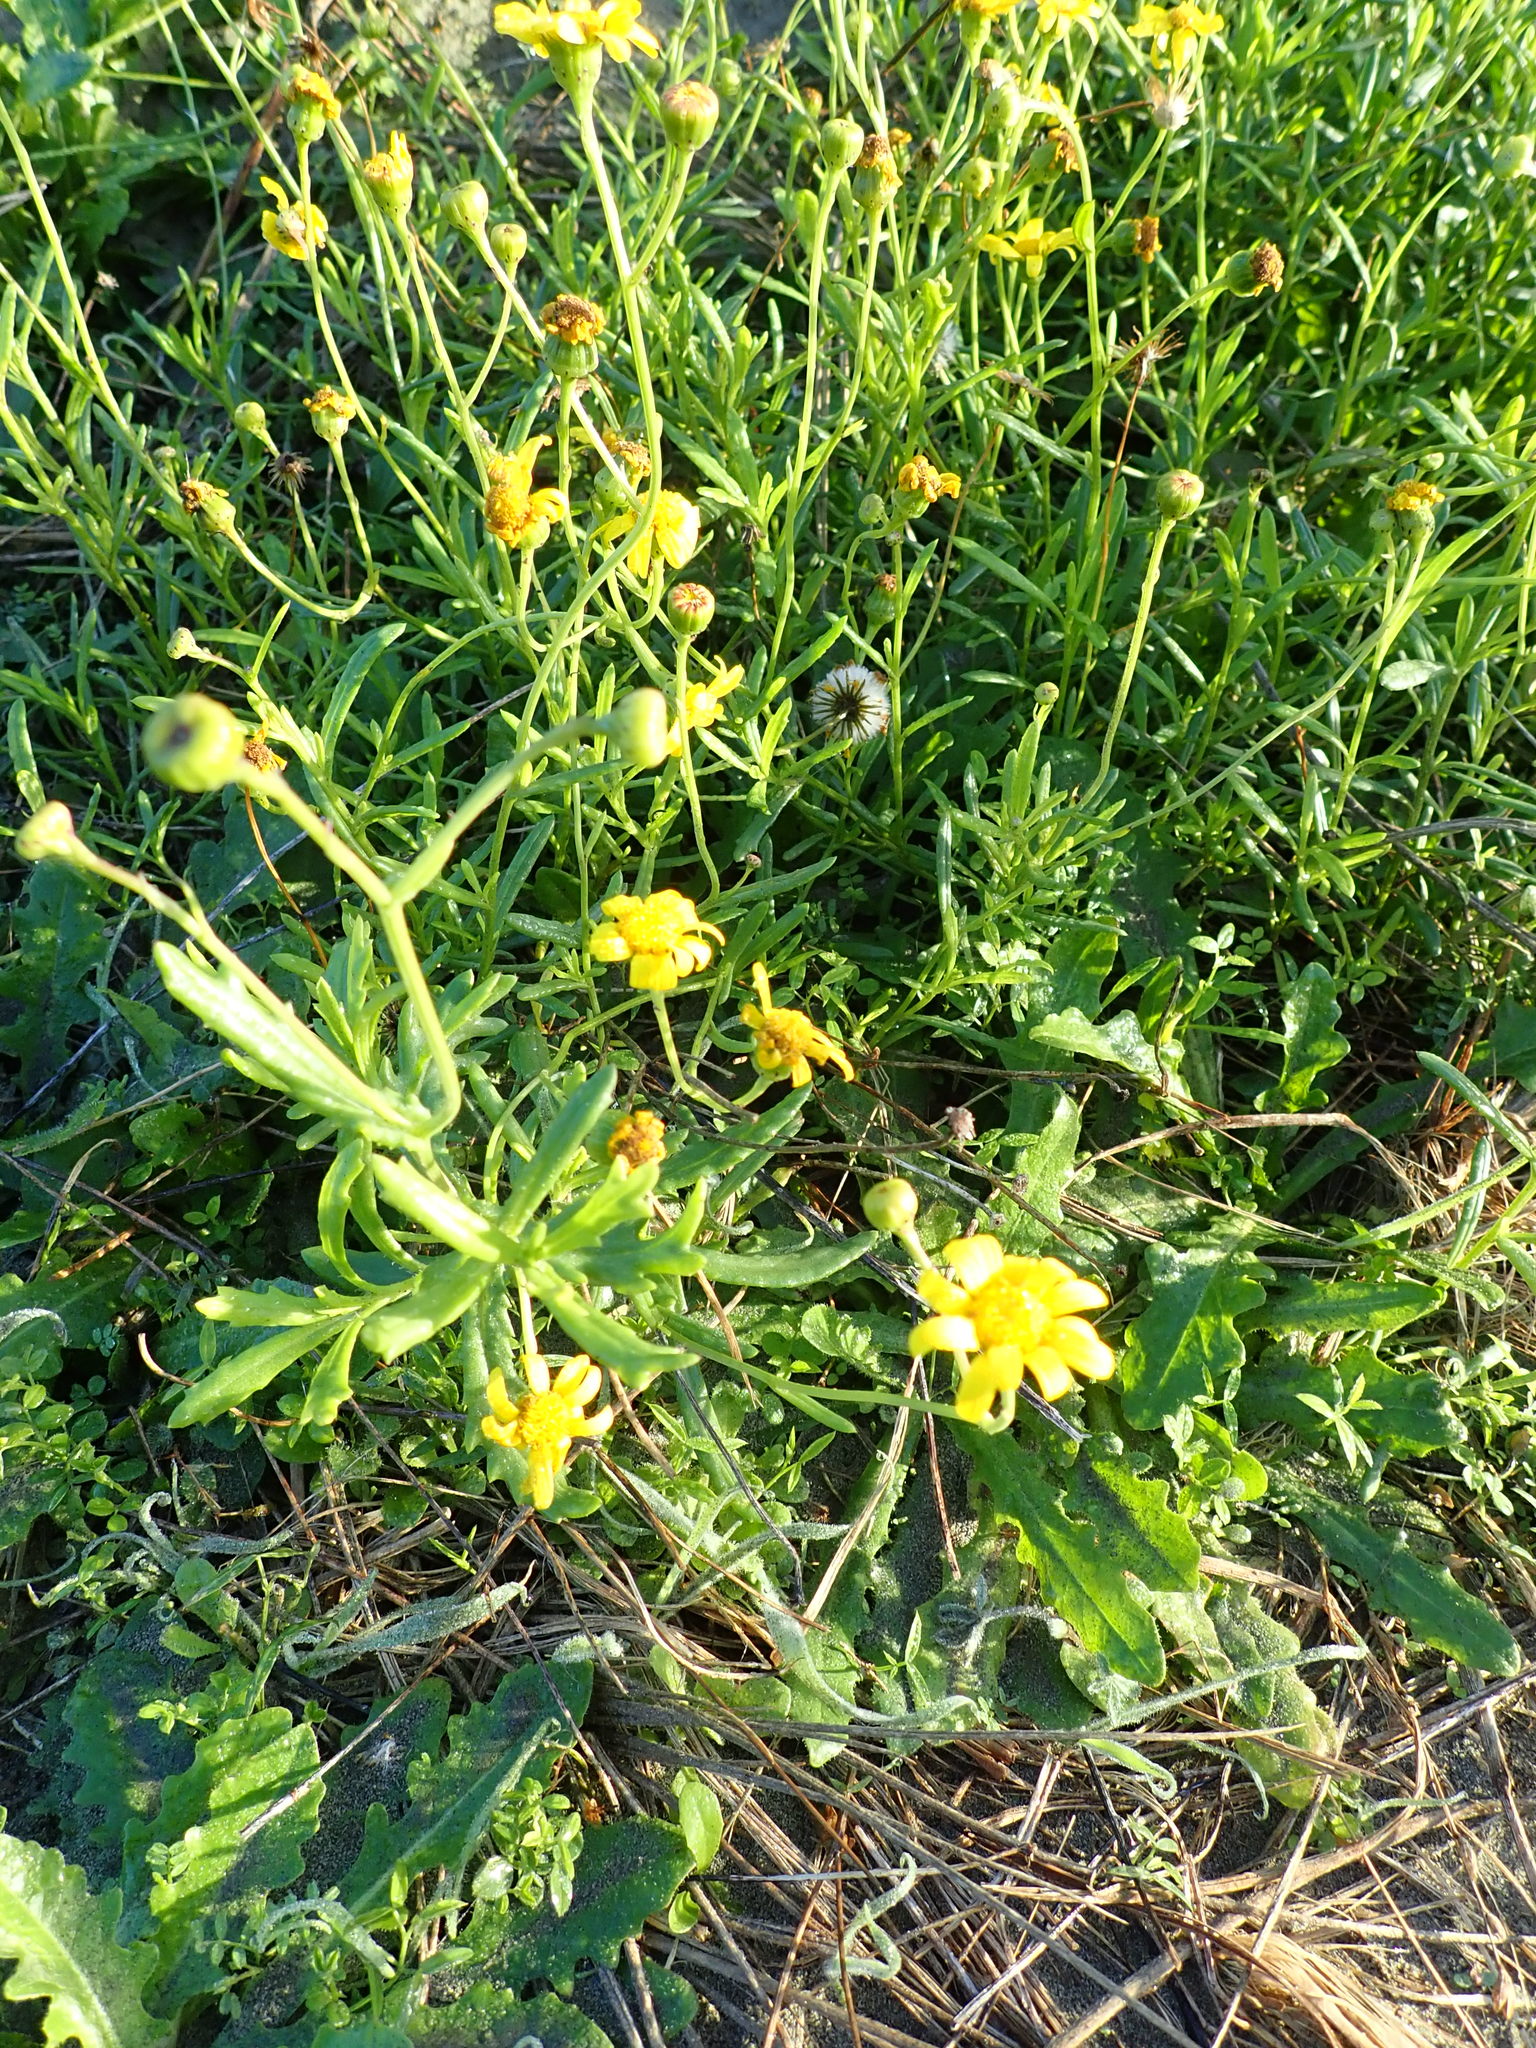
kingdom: Plantae
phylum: Tracheophyta
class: Magnoliopsida
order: Asterales
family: Asteraceae
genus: Senecio
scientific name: Senecio skirrhodon
